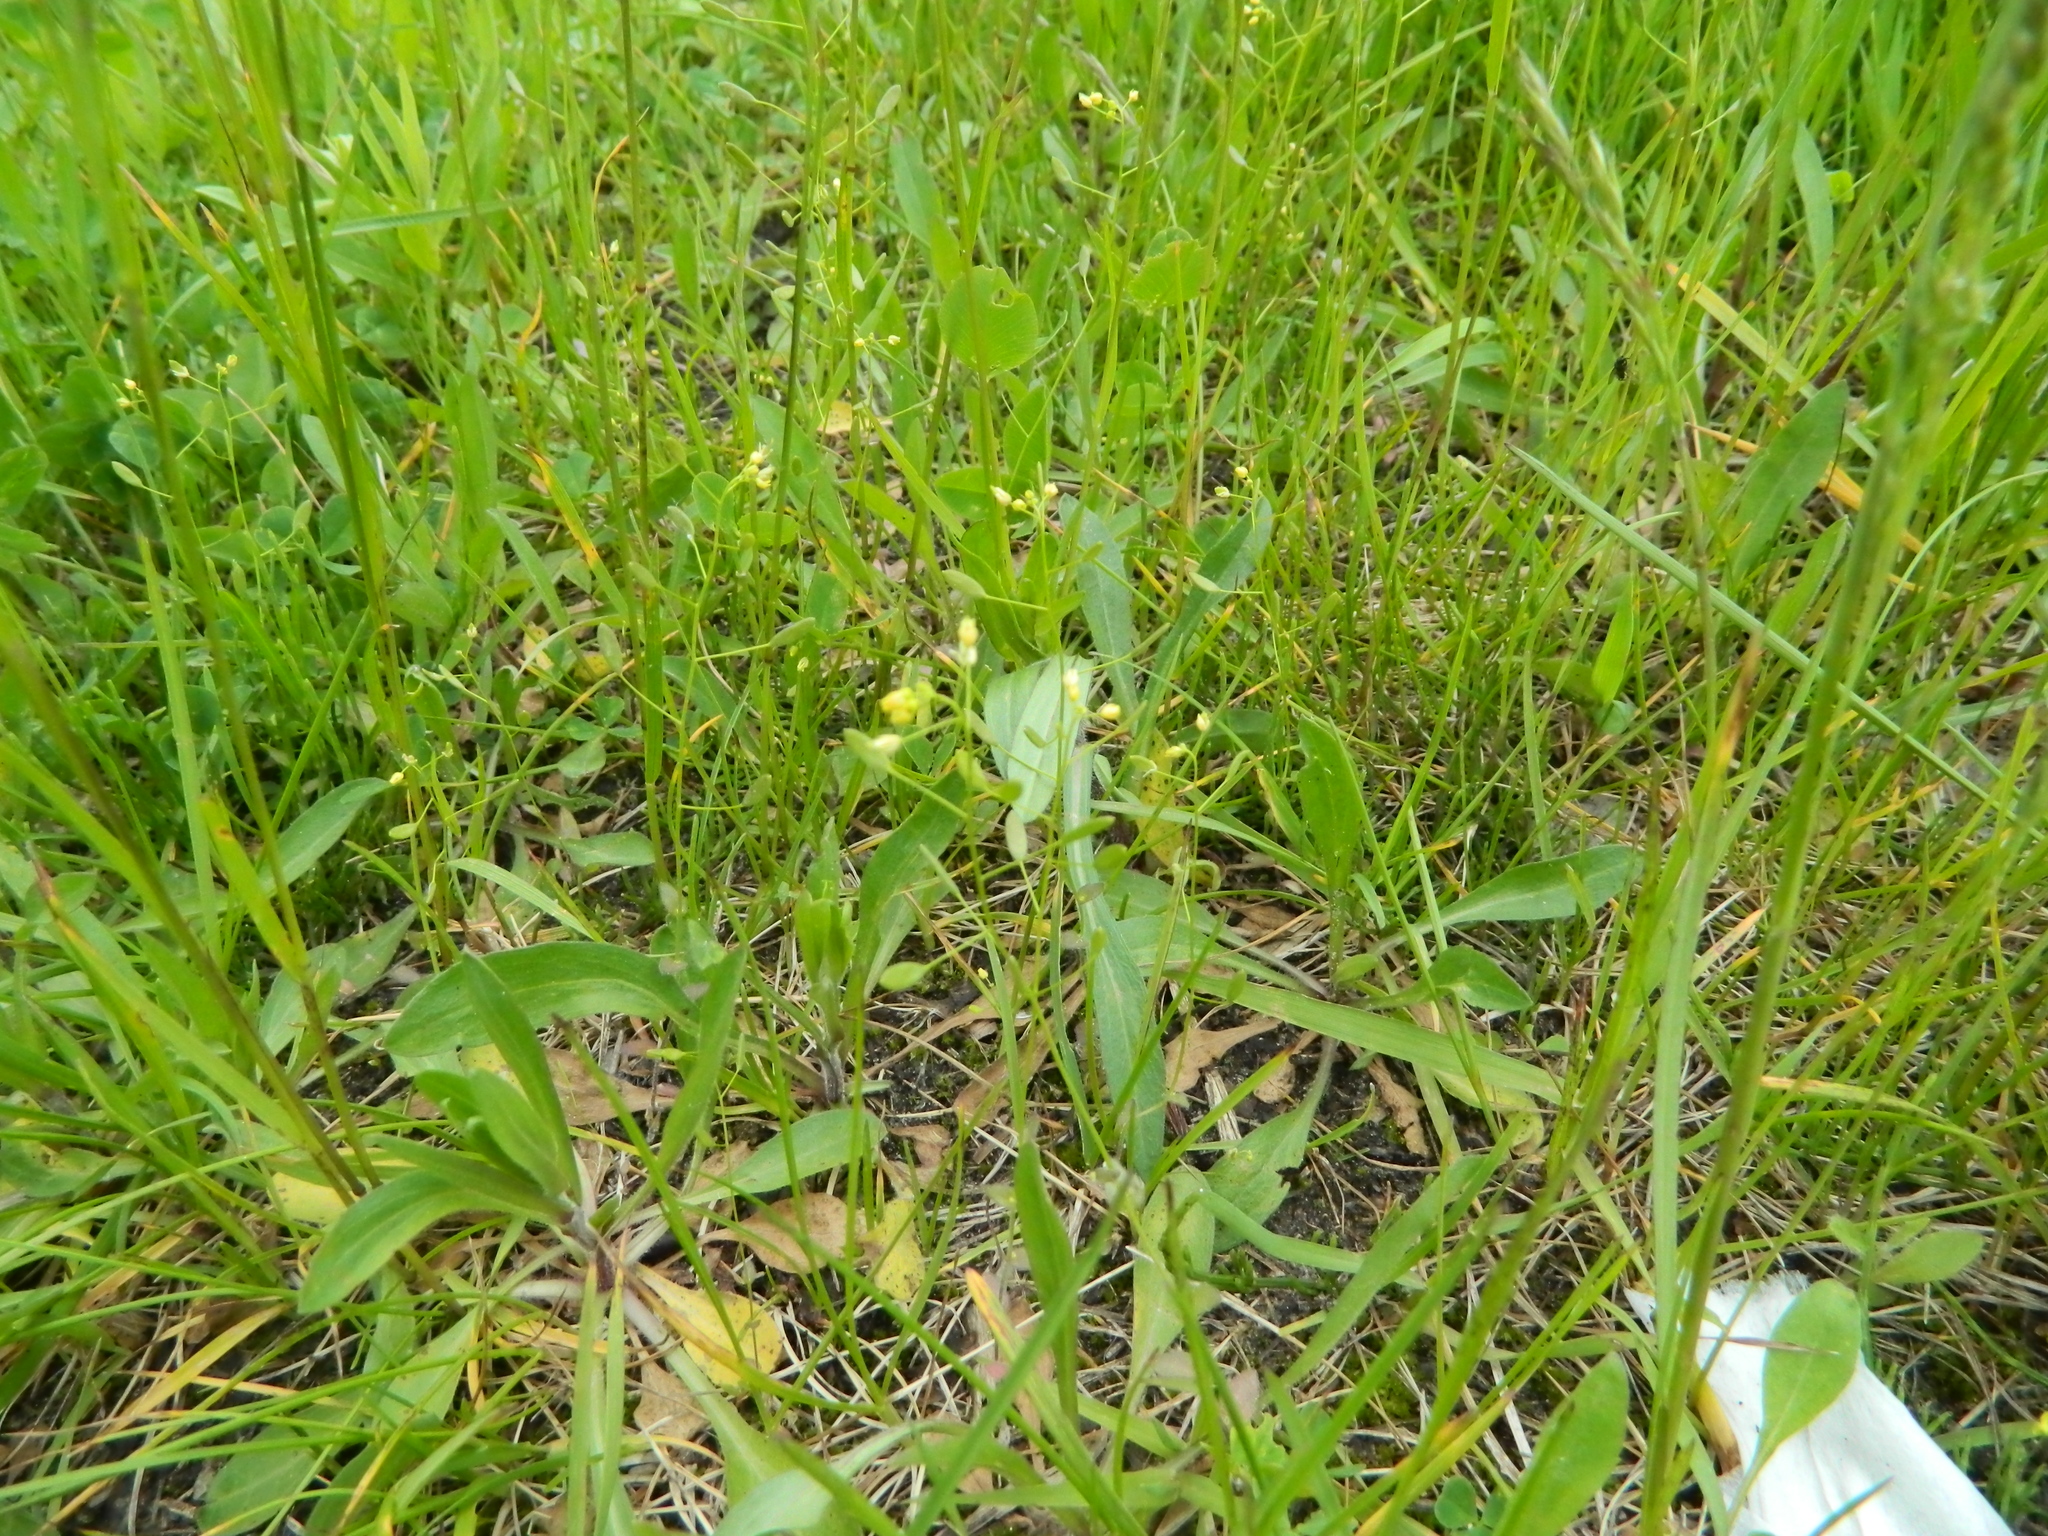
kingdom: Plantae
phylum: Tracheophyta
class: Magnoliopsida
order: Brassicales
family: Brassicaceae
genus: Draba
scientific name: Draba nemorosa
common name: Wood whitlow-grass
